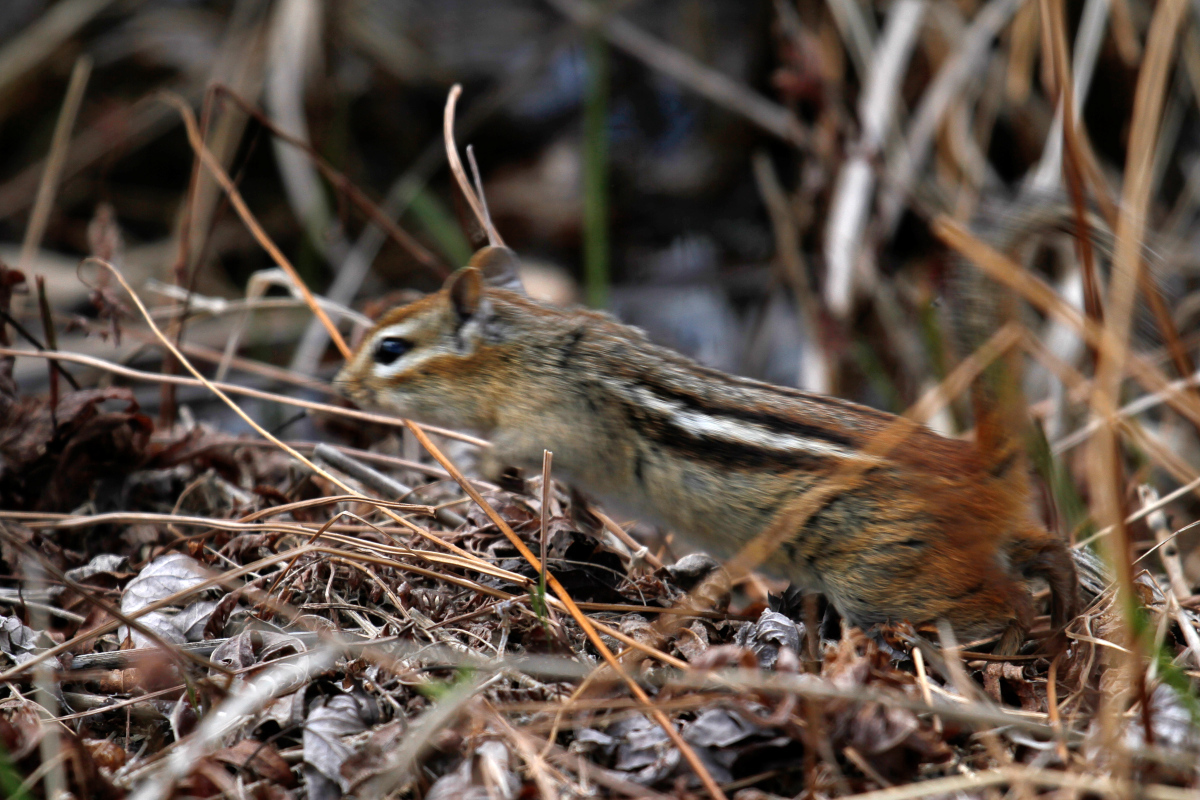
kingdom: Animalia
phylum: Chordata
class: Mammalia
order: Rodentia
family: Sciuridae
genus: Tamias
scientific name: Tamias striatus
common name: Eastern chipmunk
